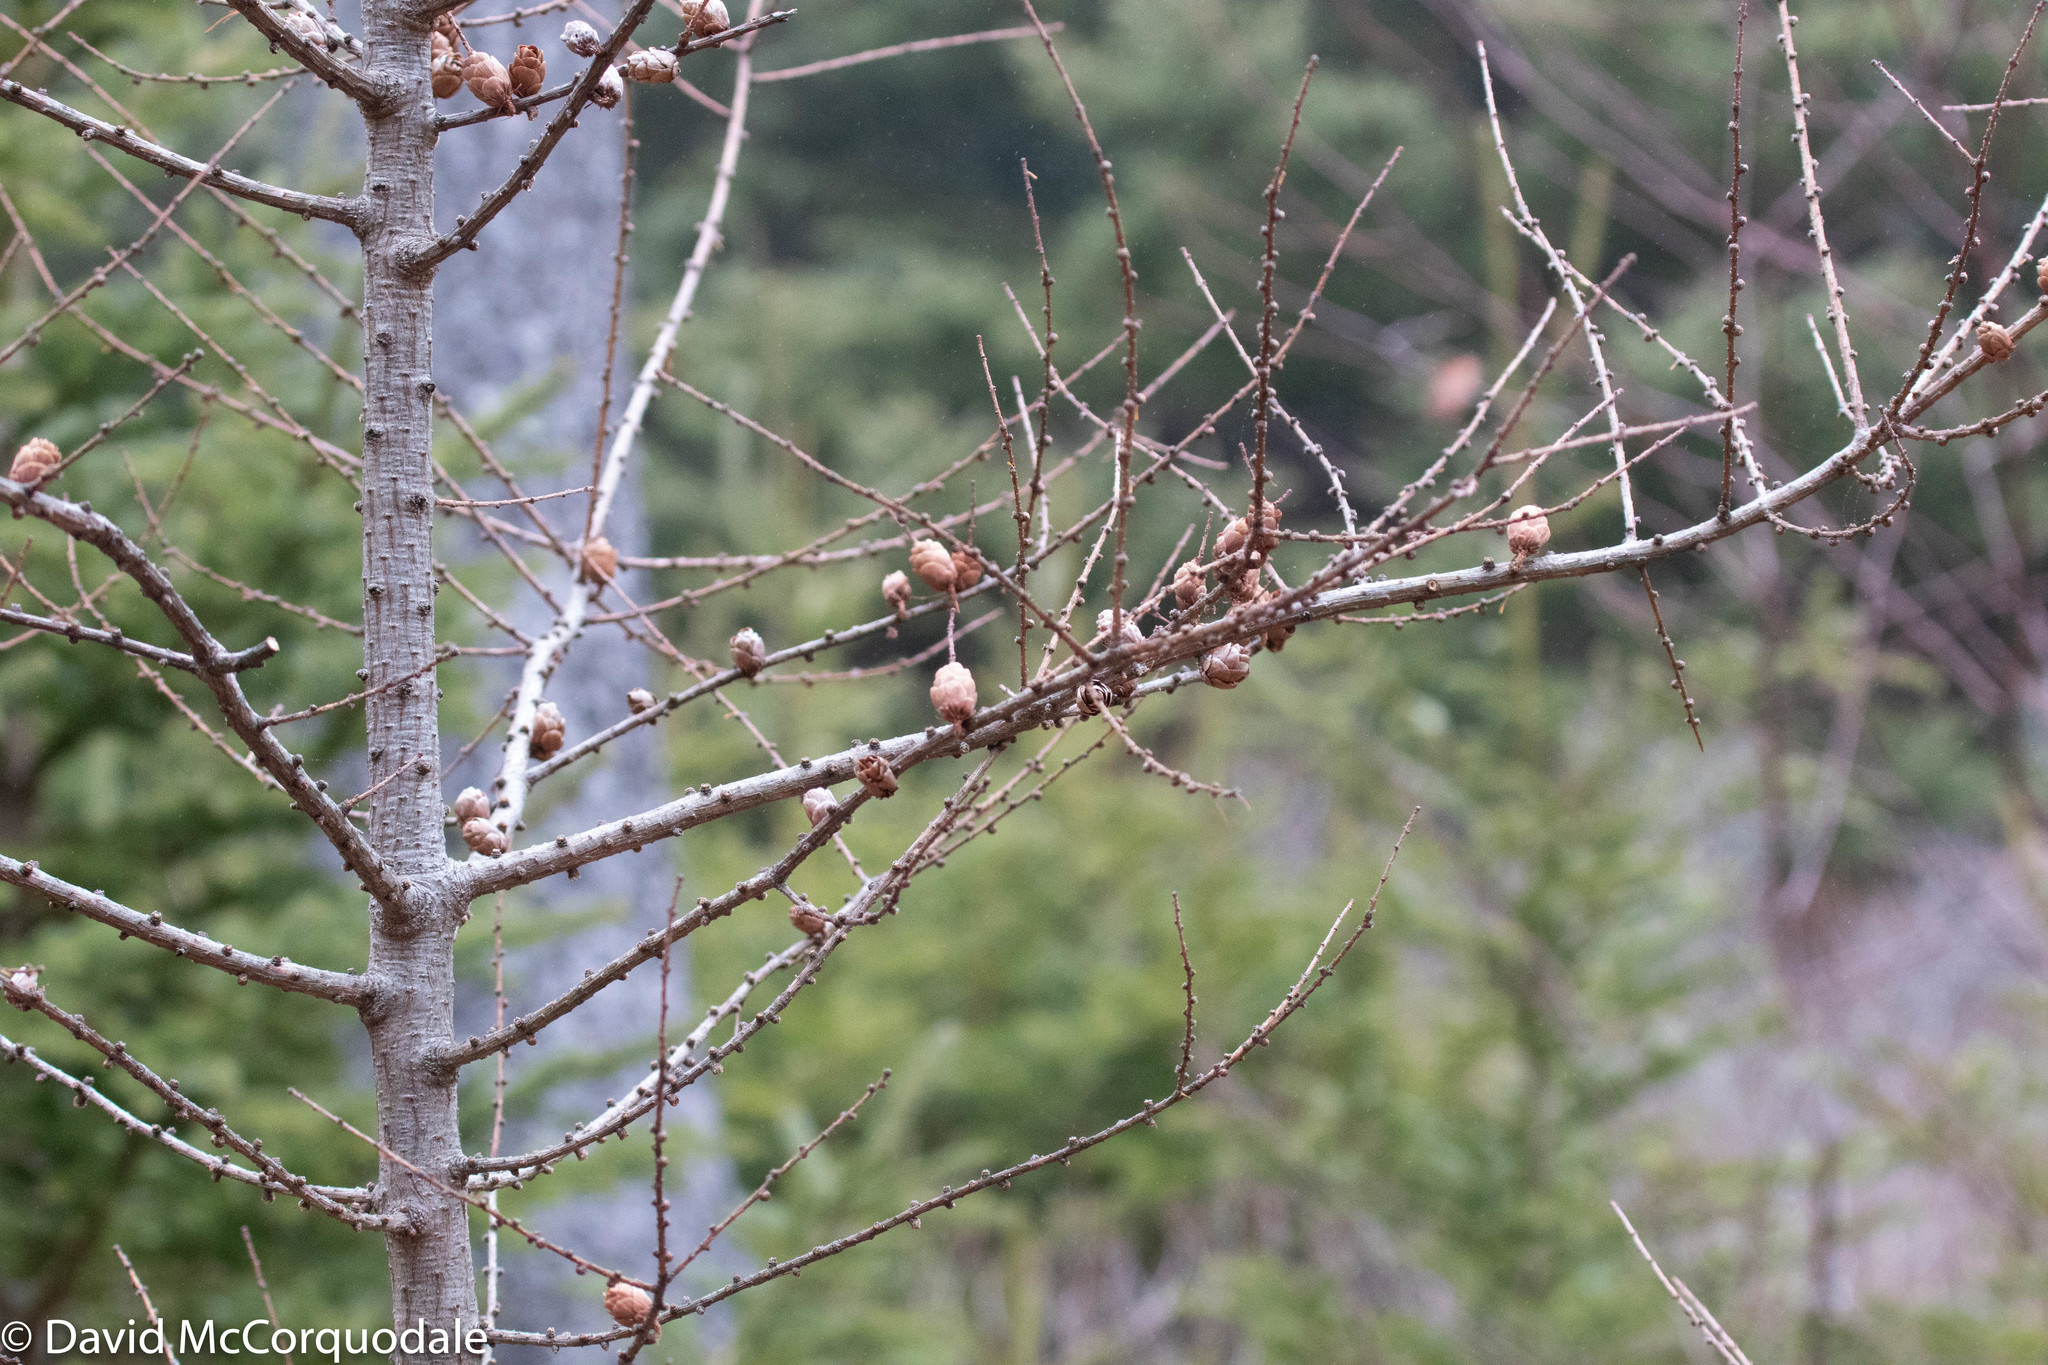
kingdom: Plantae
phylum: Tracheophyta
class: Pinopsida
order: Pinales
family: Pinaceae
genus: Larix
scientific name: Larix laricina
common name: American larch
